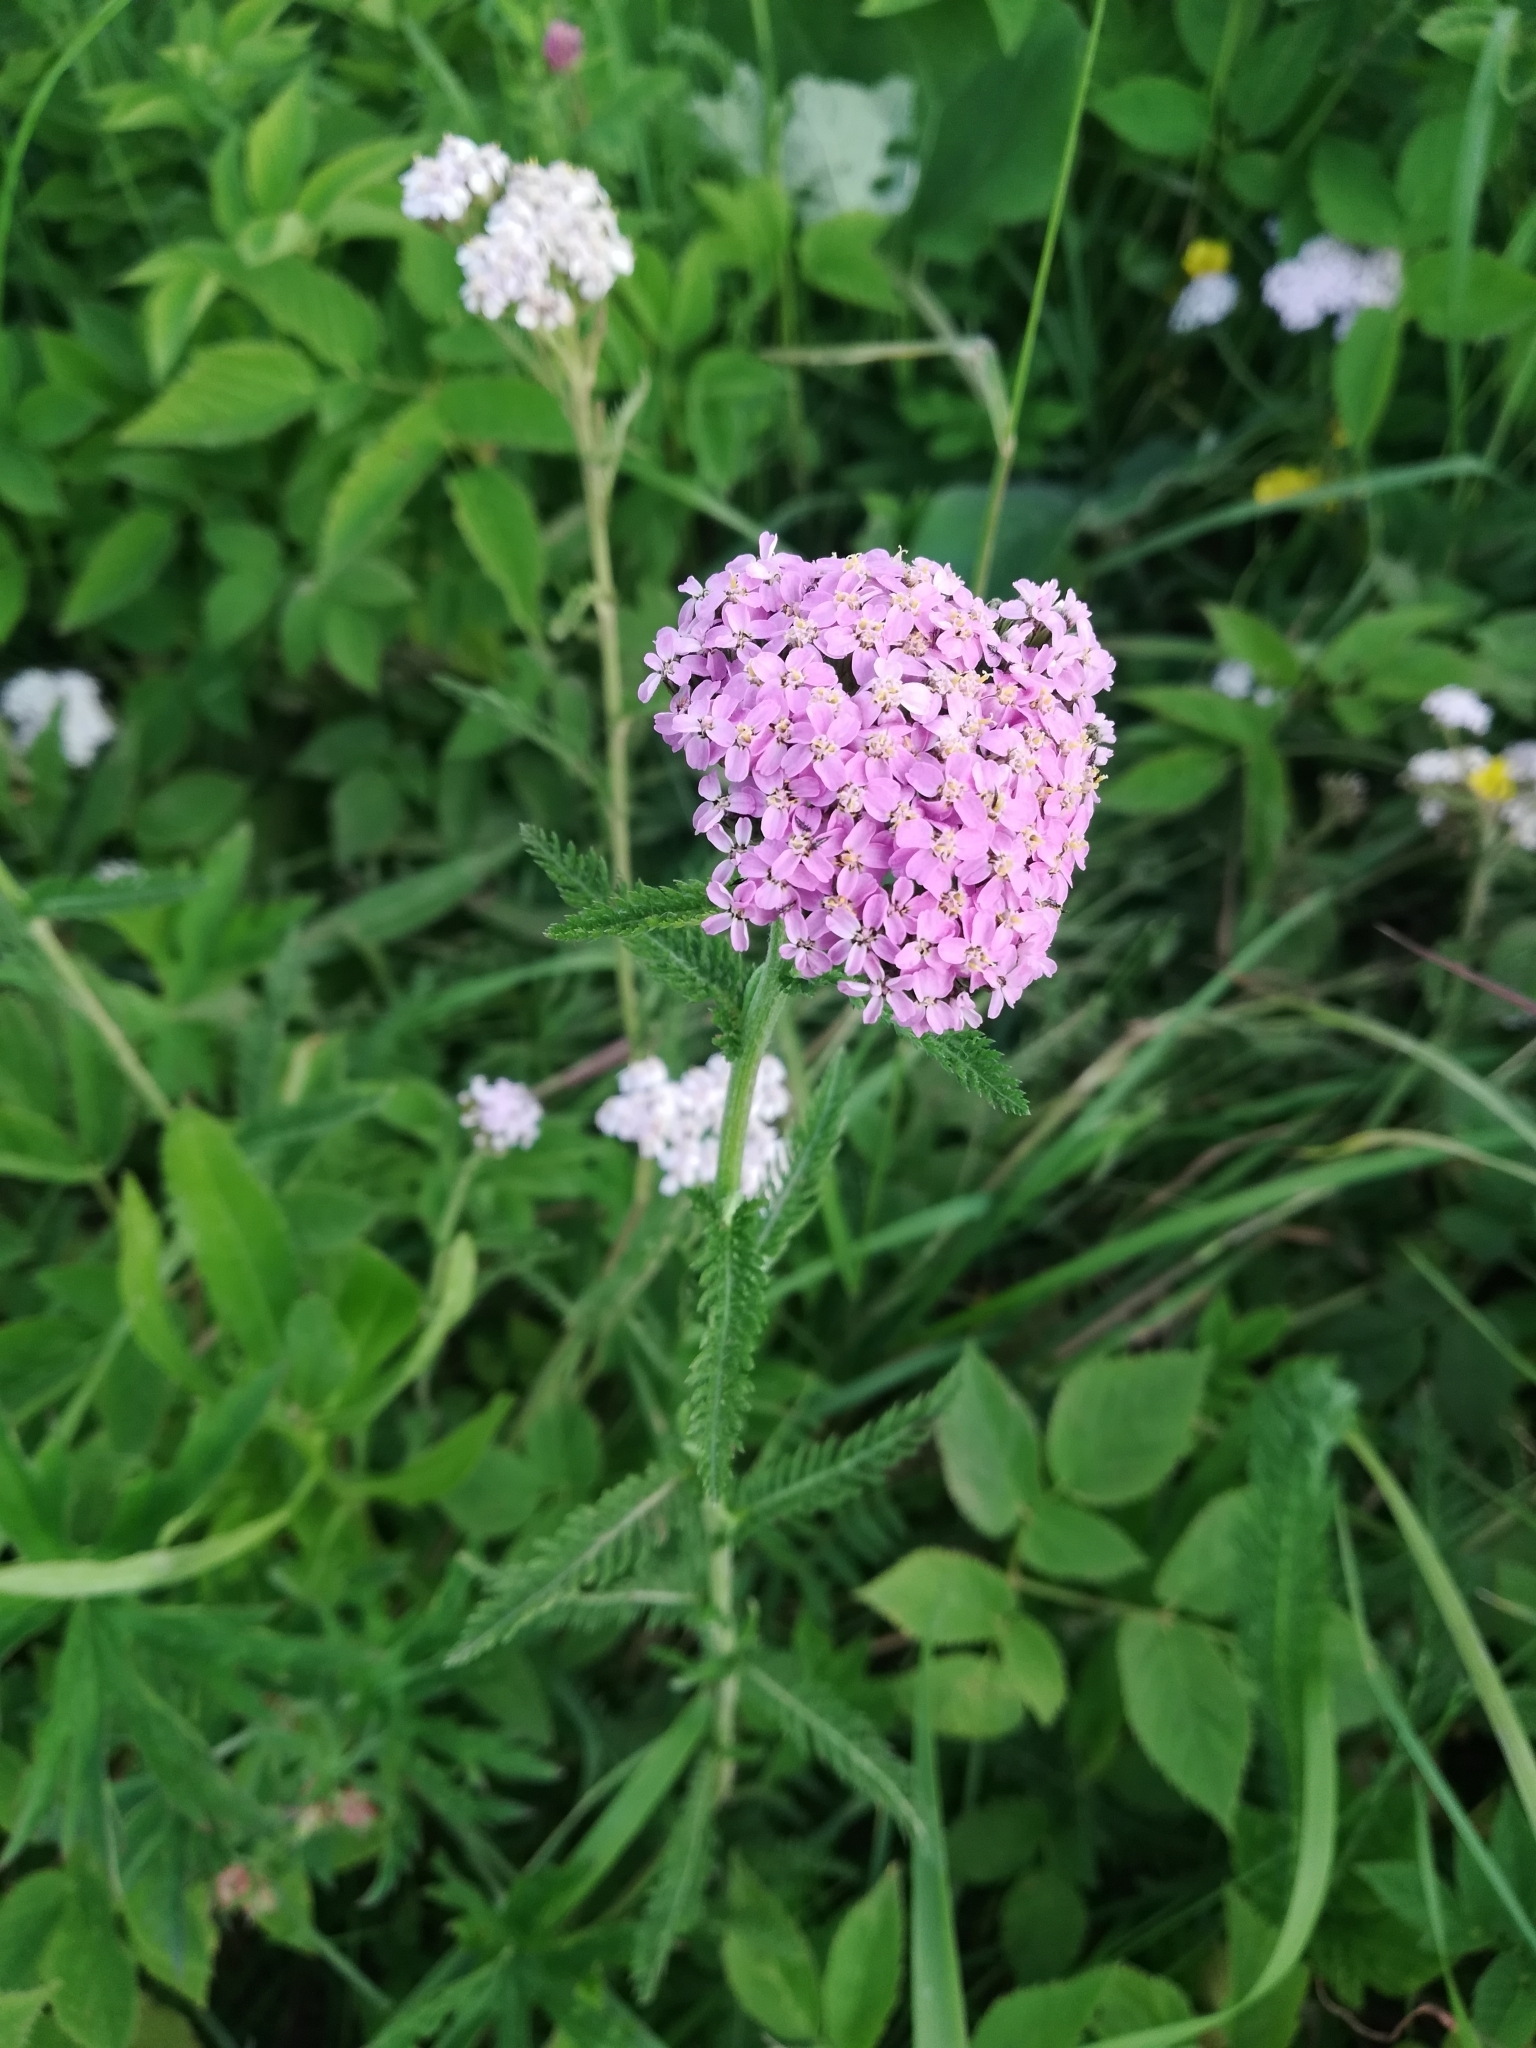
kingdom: Plantae
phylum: Tracheophyta
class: Magnoliopsida
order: Asterales
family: Asteraceae
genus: Achillea
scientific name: Achillea asiatica
